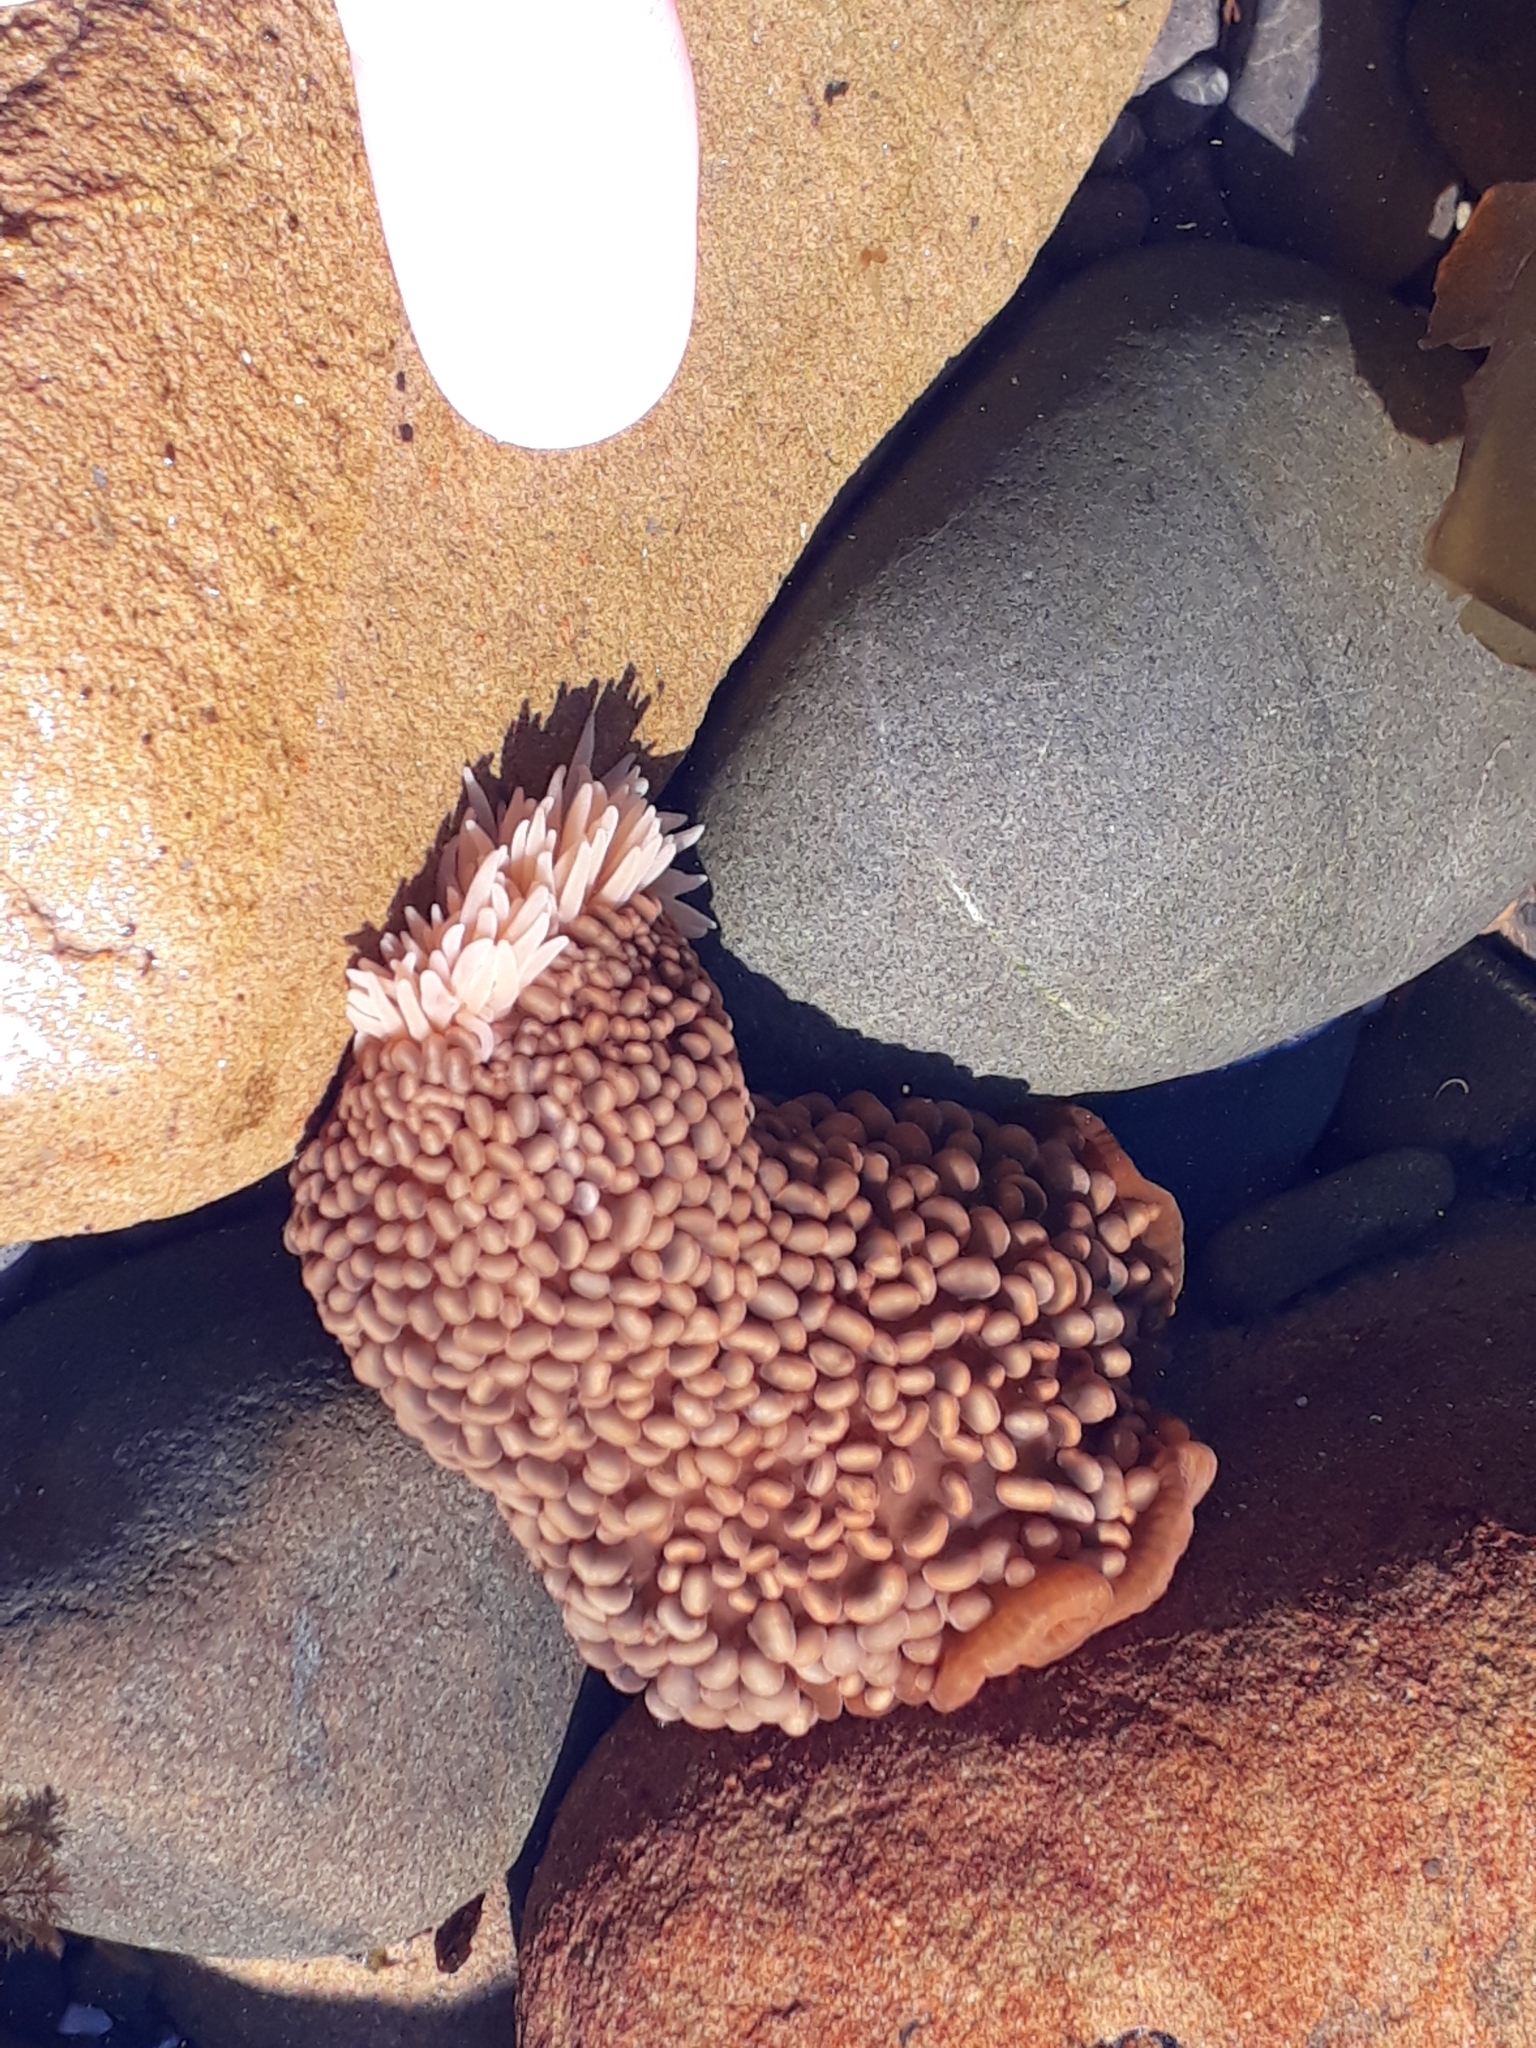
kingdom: Animalia
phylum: Cnidaria
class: Anthozoa
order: Actiniaria
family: Actiniidae
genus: Phlyctenactis
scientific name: Phlyctenactis tuberculosa
